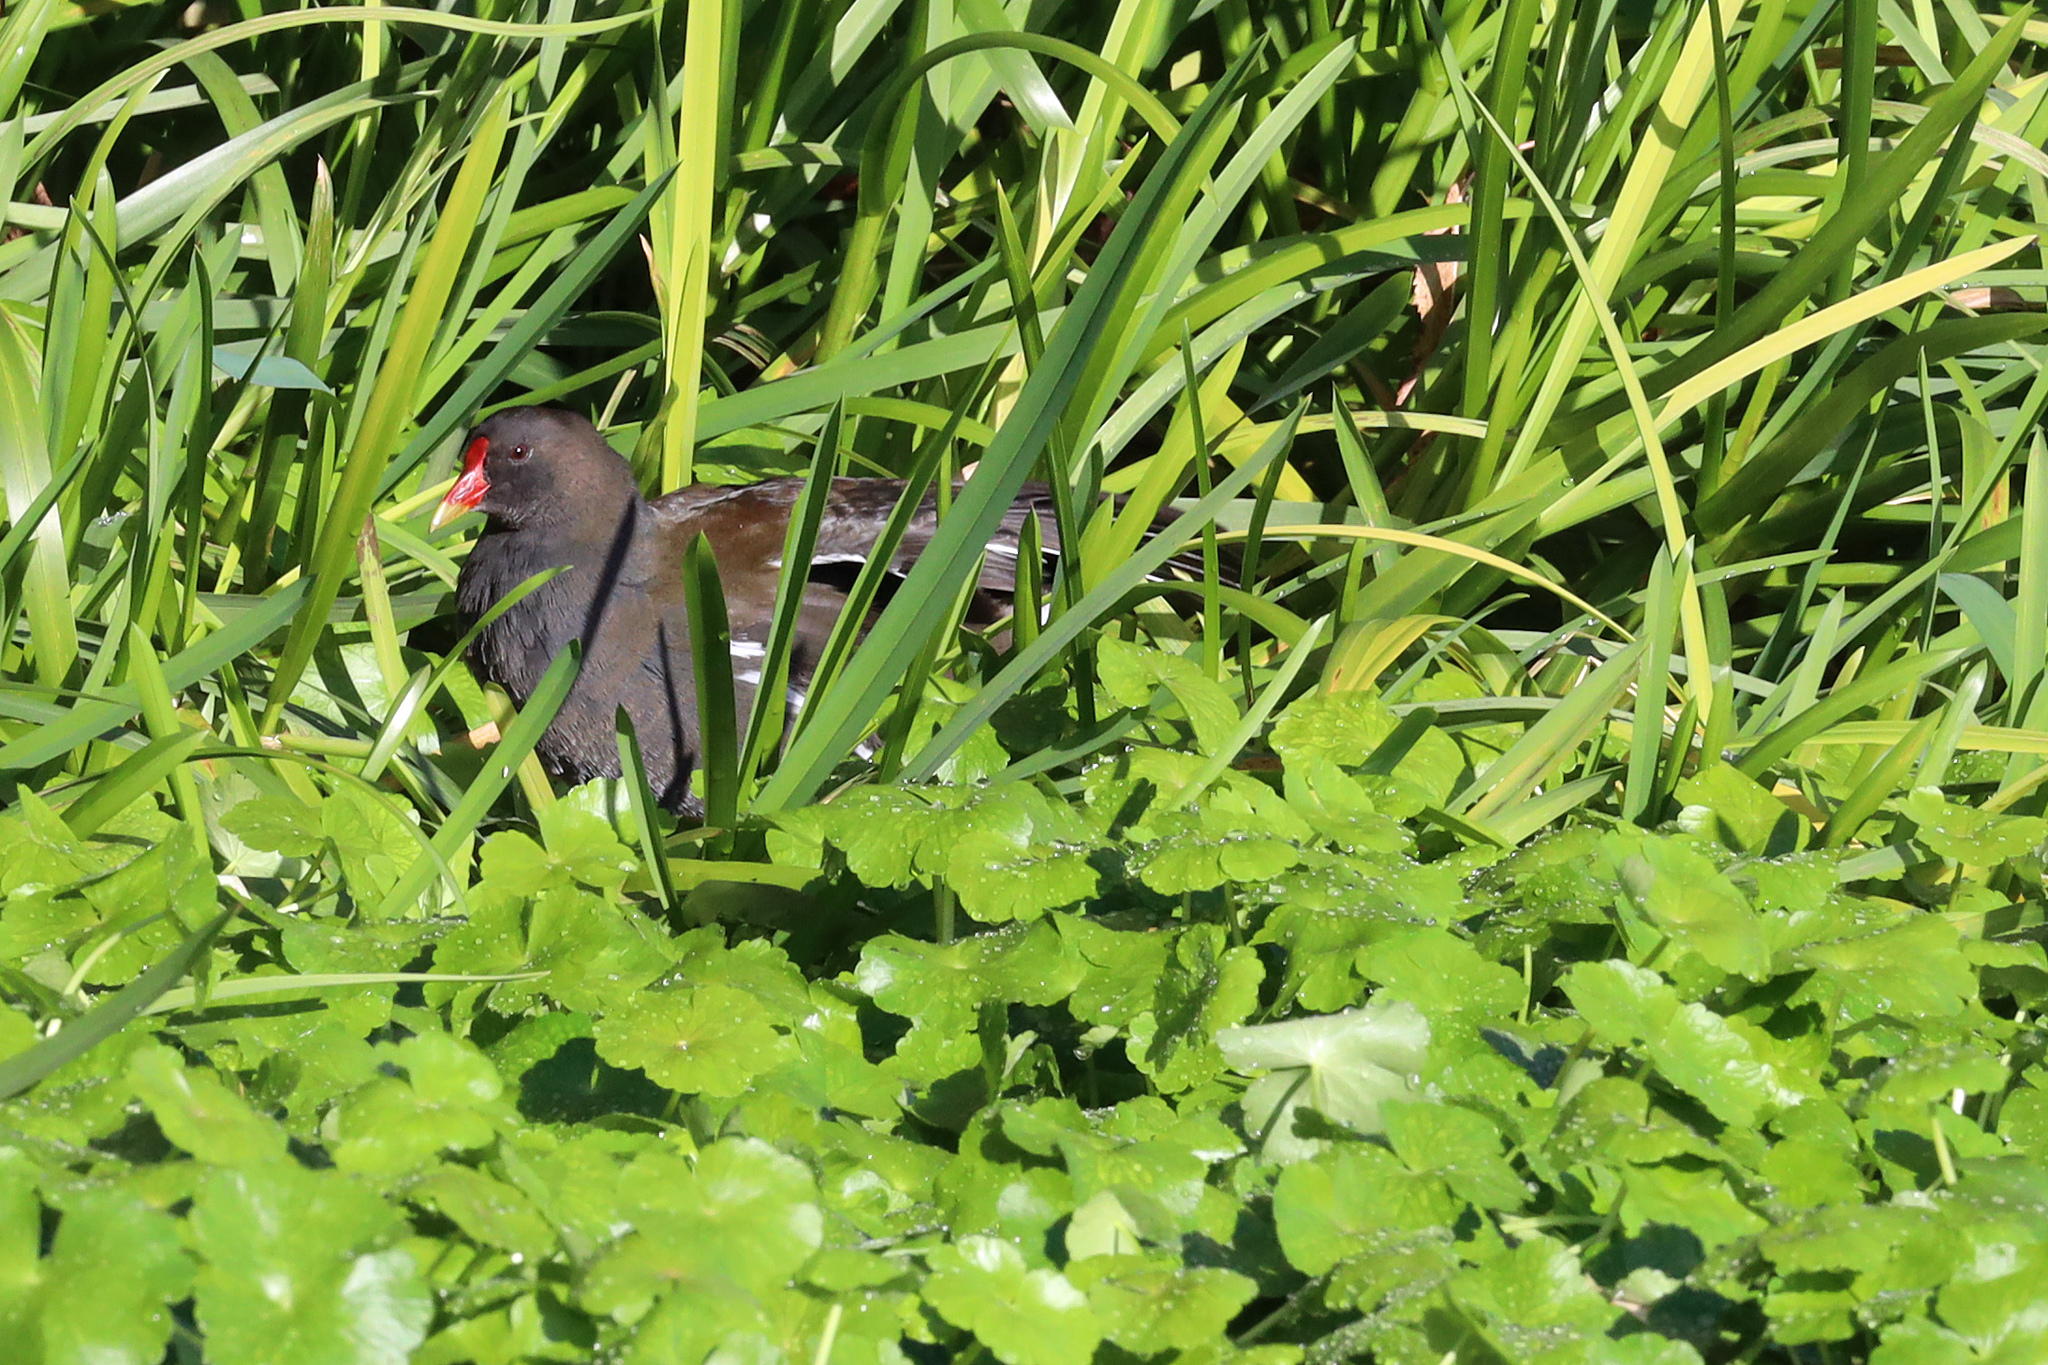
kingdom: Animalia
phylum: Chordata
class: Aves
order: Gruiformes
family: Rallidae
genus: Gallinula
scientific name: Gallinula chloropus
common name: Common moorhen
